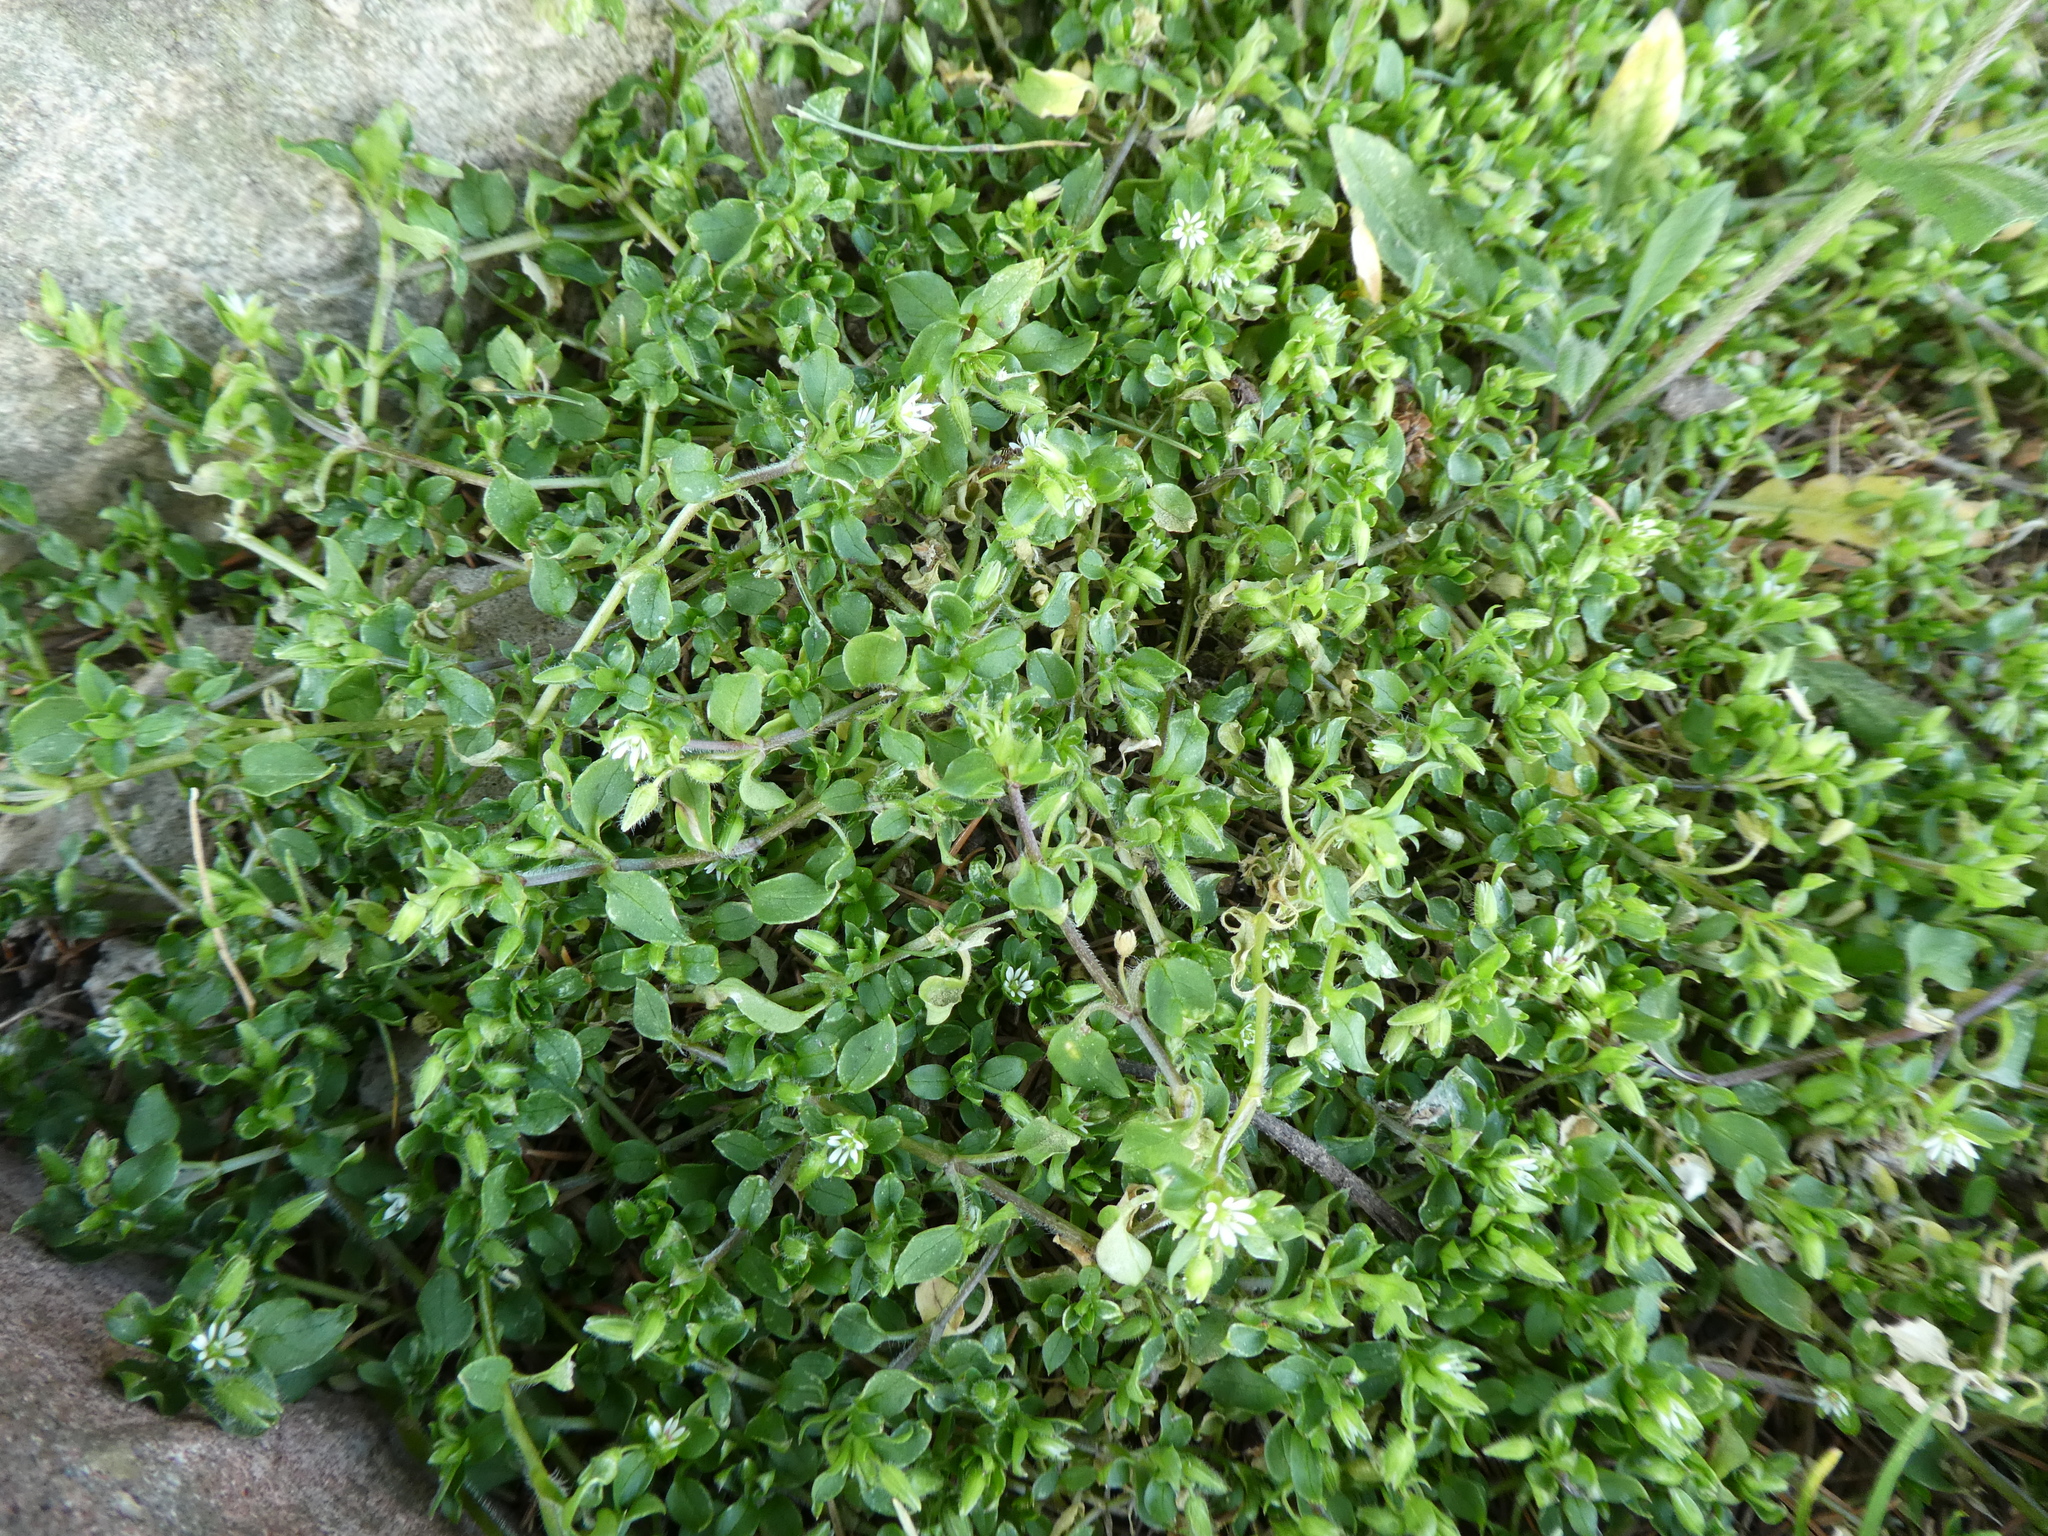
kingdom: Plantae
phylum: Tracheophyta
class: Magnoliopsida
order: Caryophyllales
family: Caryophyllaceae
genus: Stellaria
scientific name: Stellaria media
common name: Common chickweed
